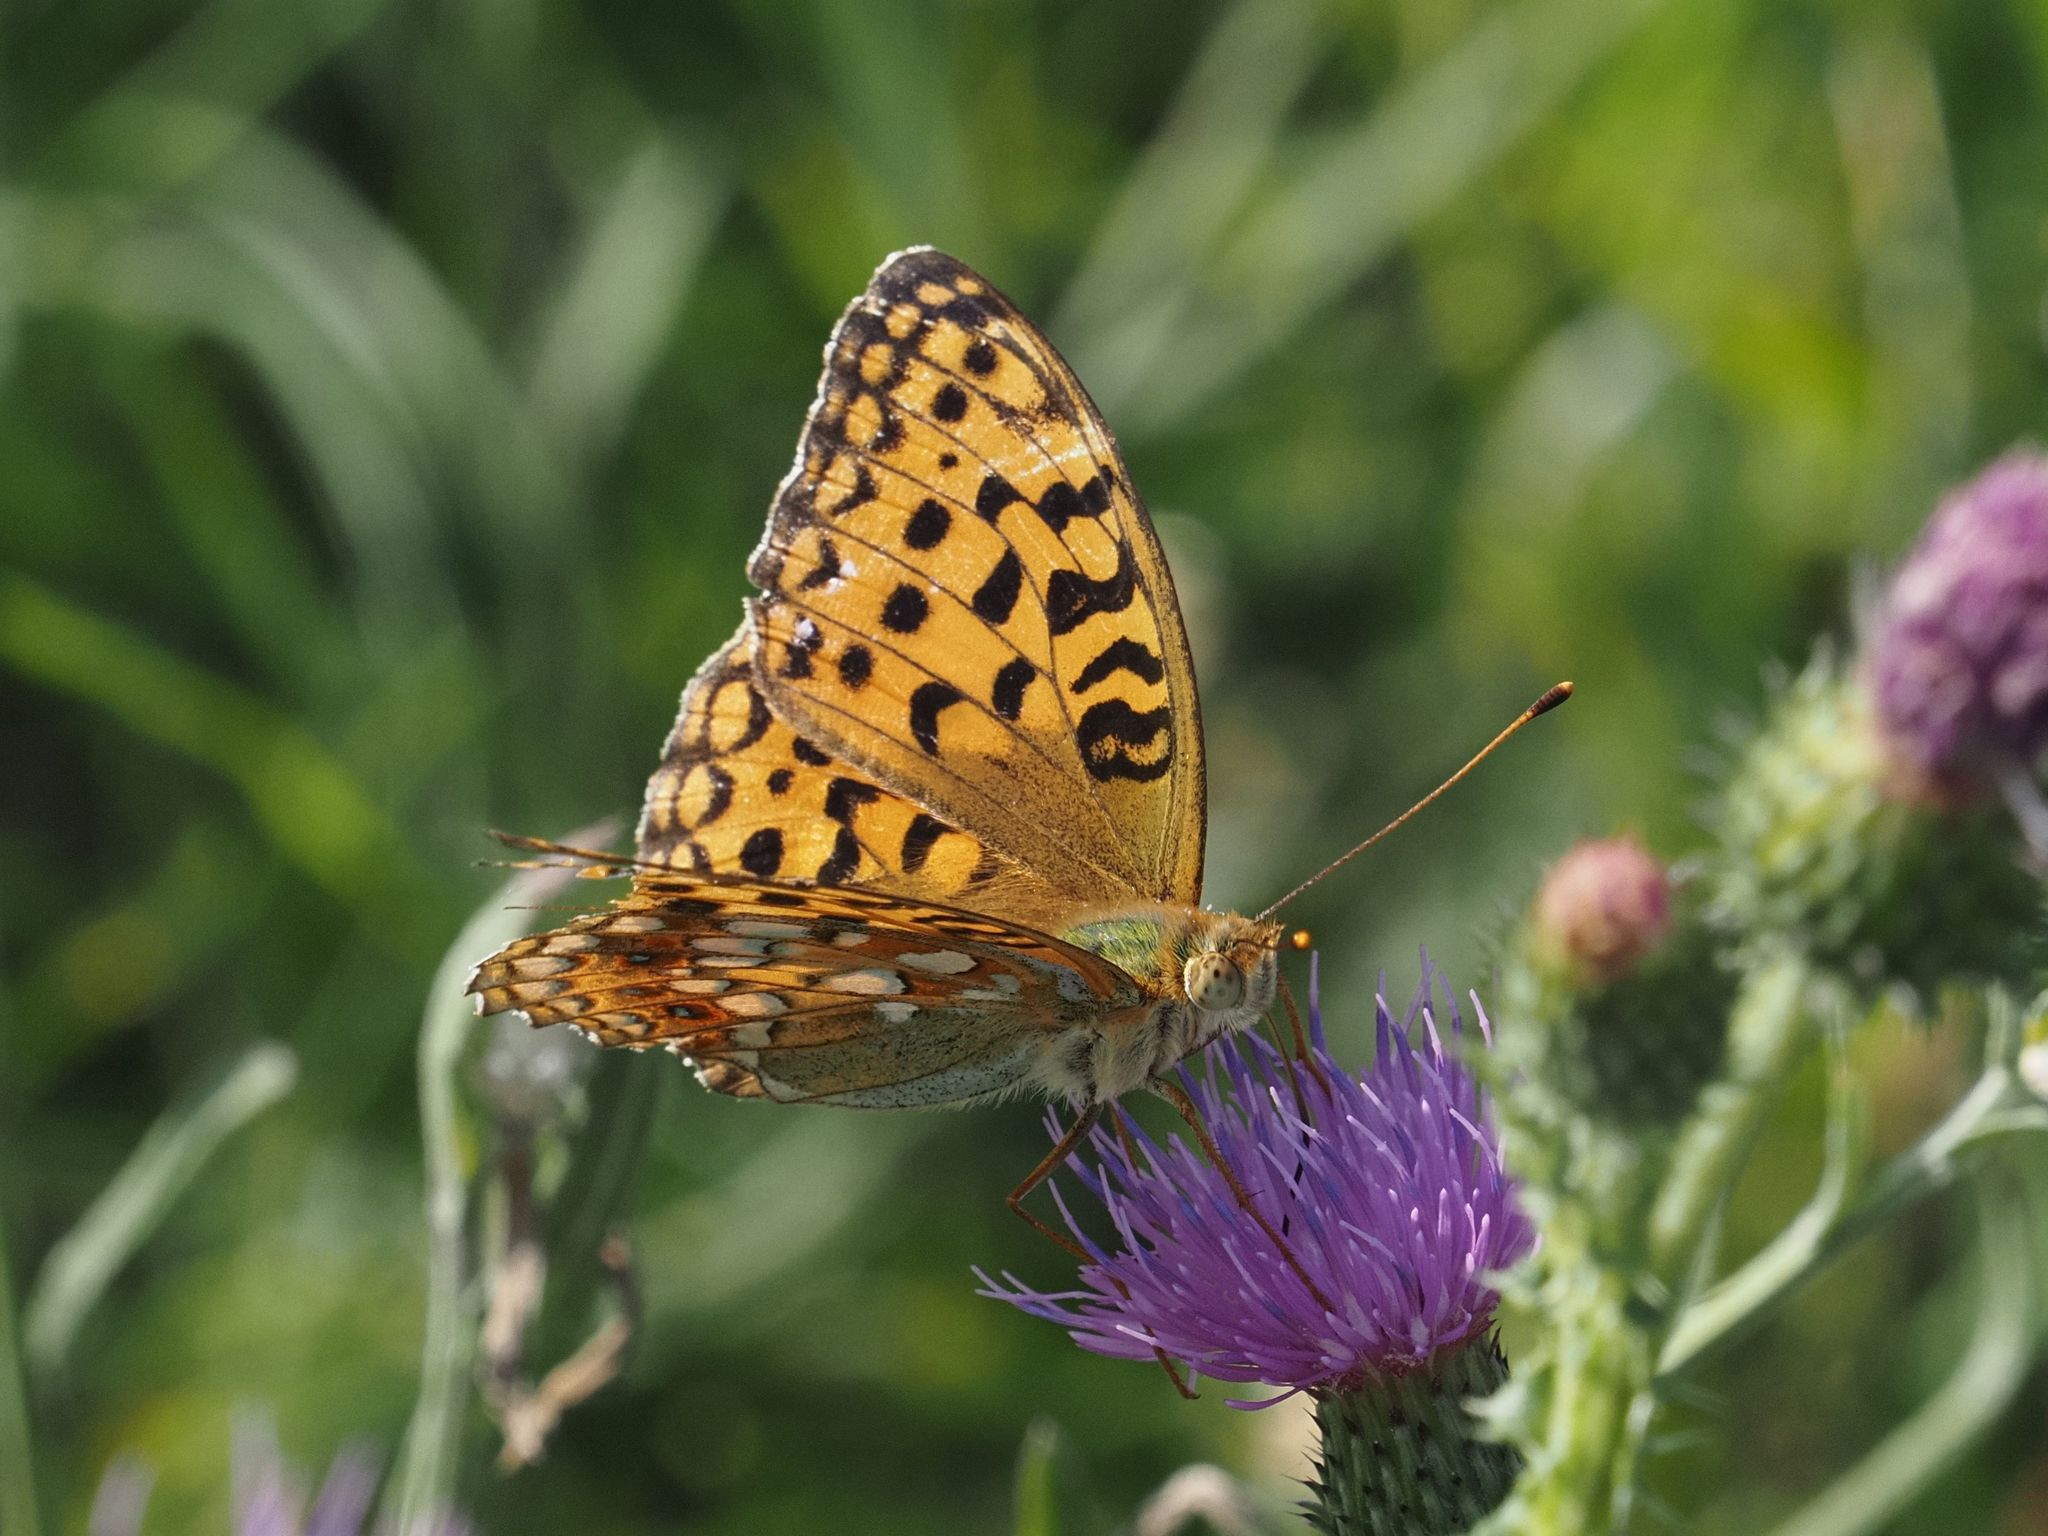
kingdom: Animalia
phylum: Arthropoda
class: Insecta
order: Lepidoptera
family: Nymphalidae
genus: Fabriciana
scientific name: Fabriciana adippe
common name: High brown fritillary
